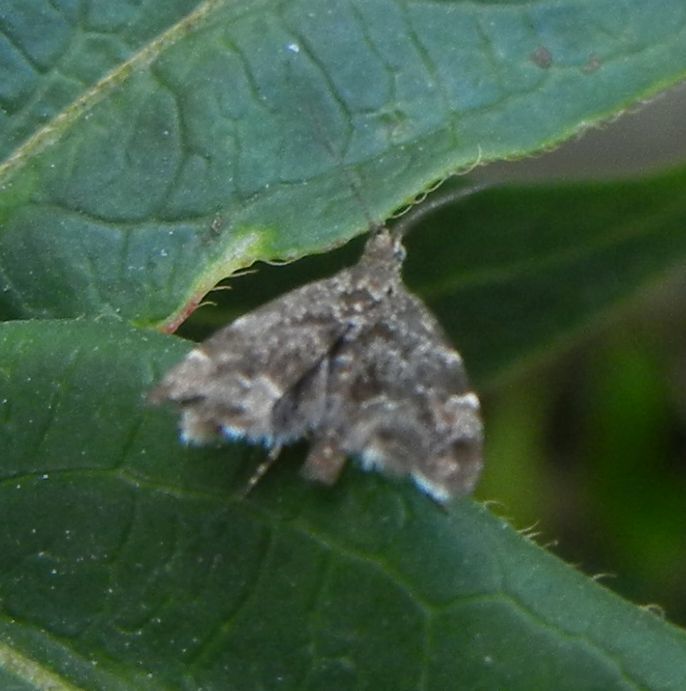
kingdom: Animalia
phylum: Arthropoda
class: Insecta
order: Lepidoptera
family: Choreutidae
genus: Anthophila
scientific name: Anthophila fabriciana
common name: Nettle-tap
